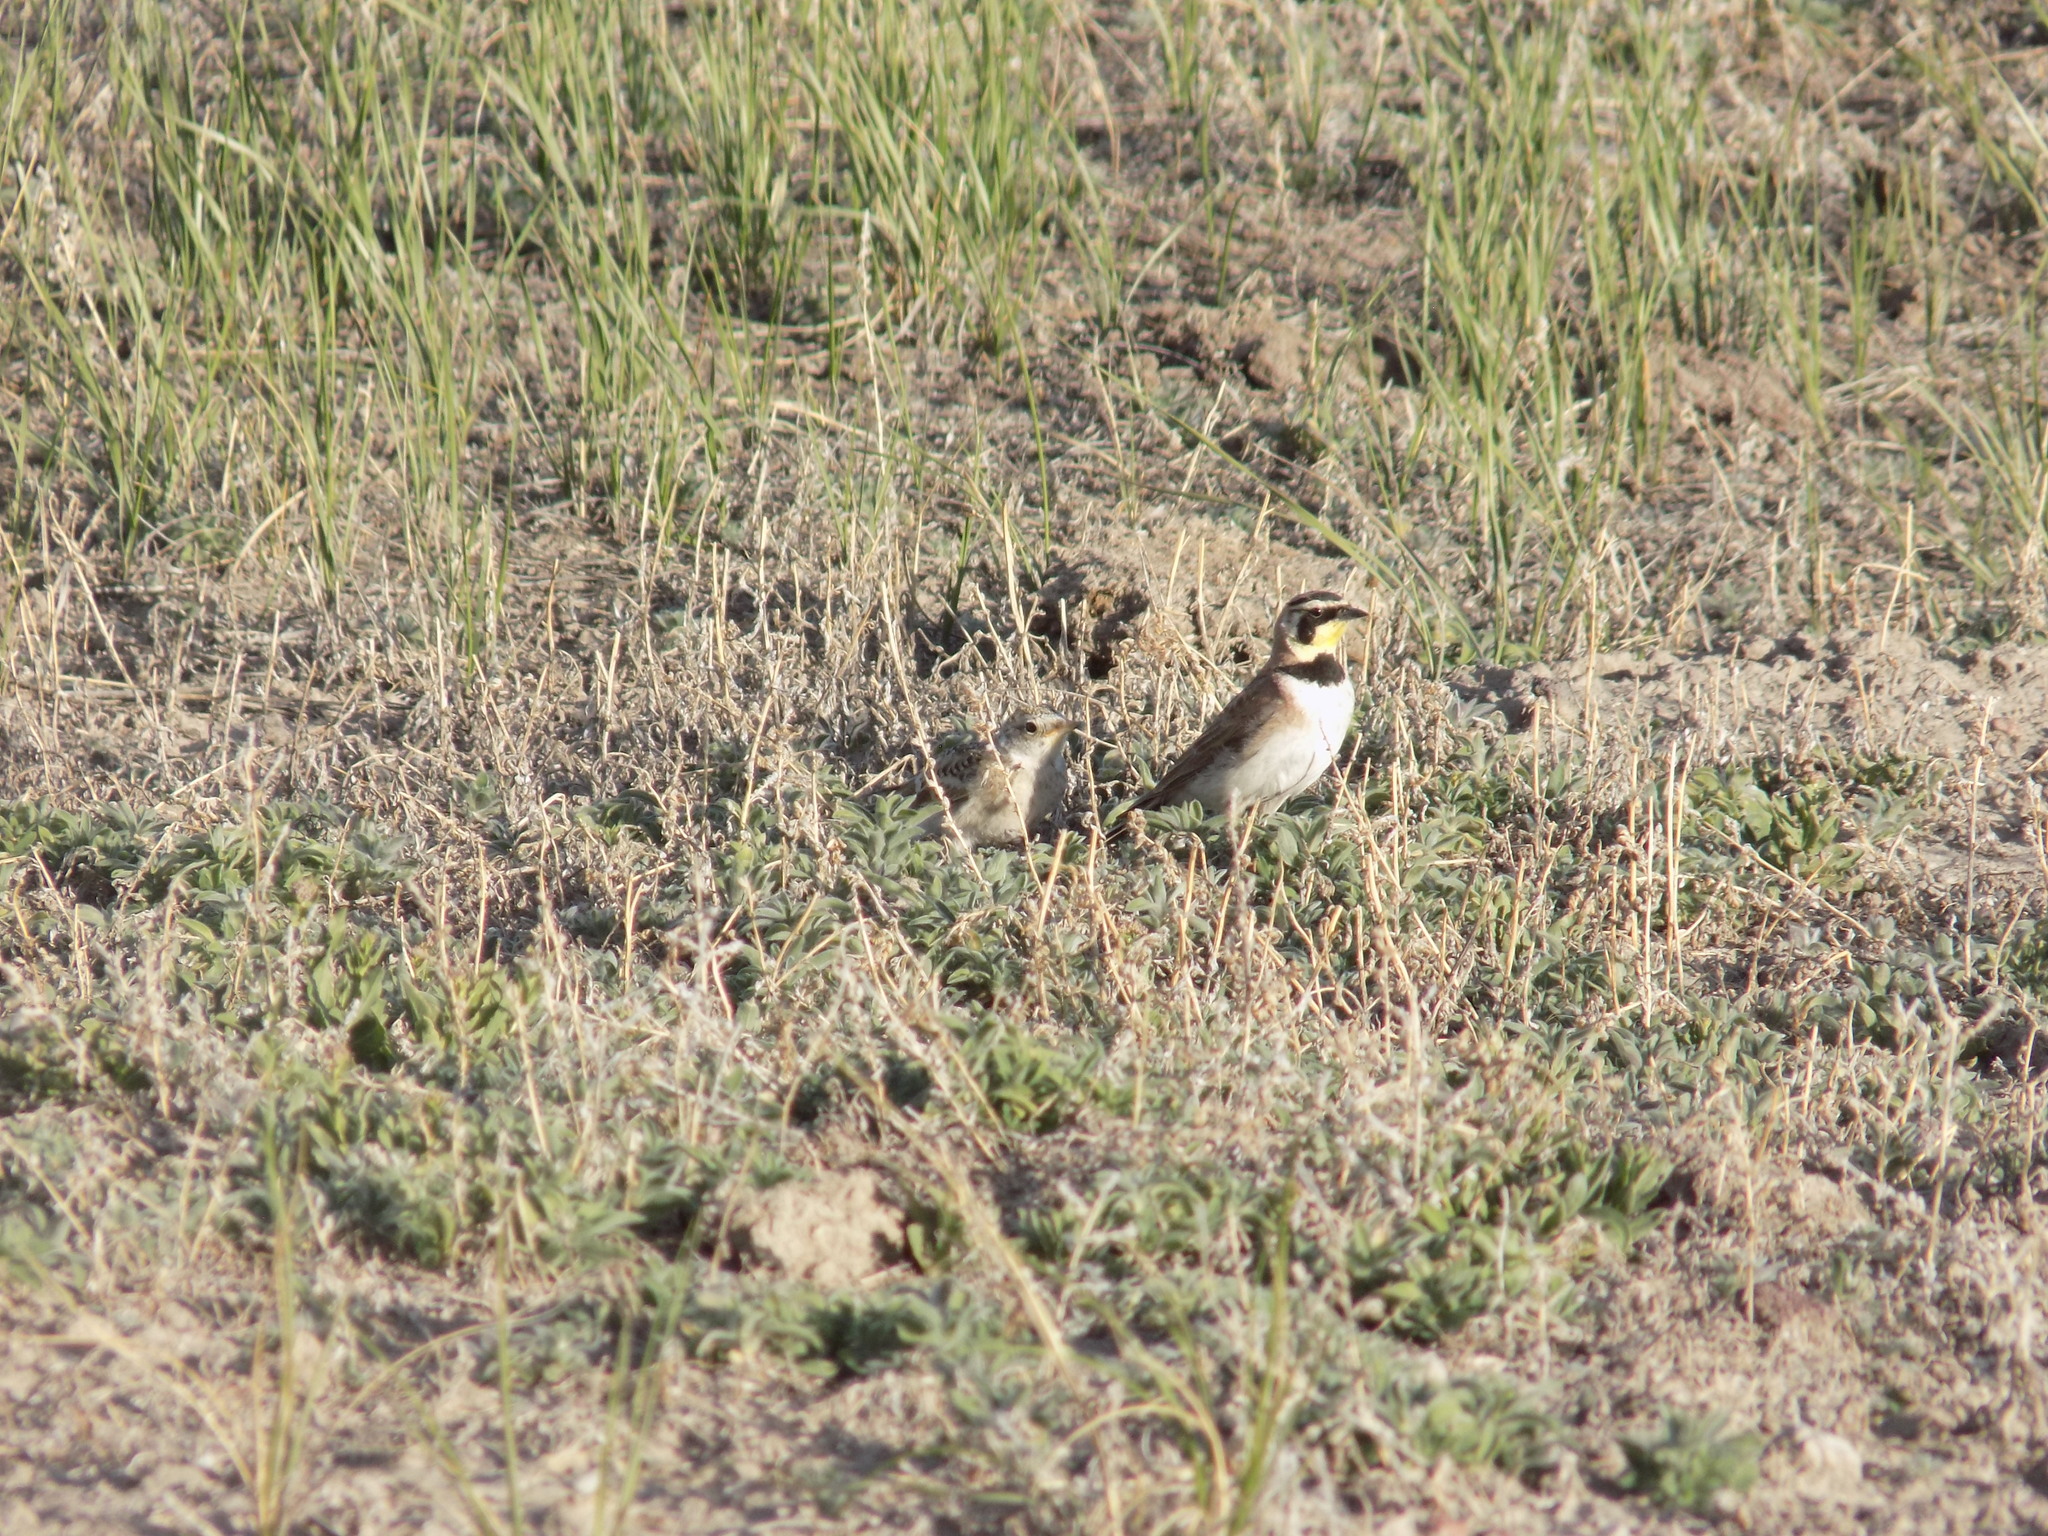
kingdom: Animalia
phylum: Chordata
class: Aves
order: Passeriformes
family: Alaudidae
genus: Eremophila
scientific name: Eremophila alpestris
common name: Horned lark
